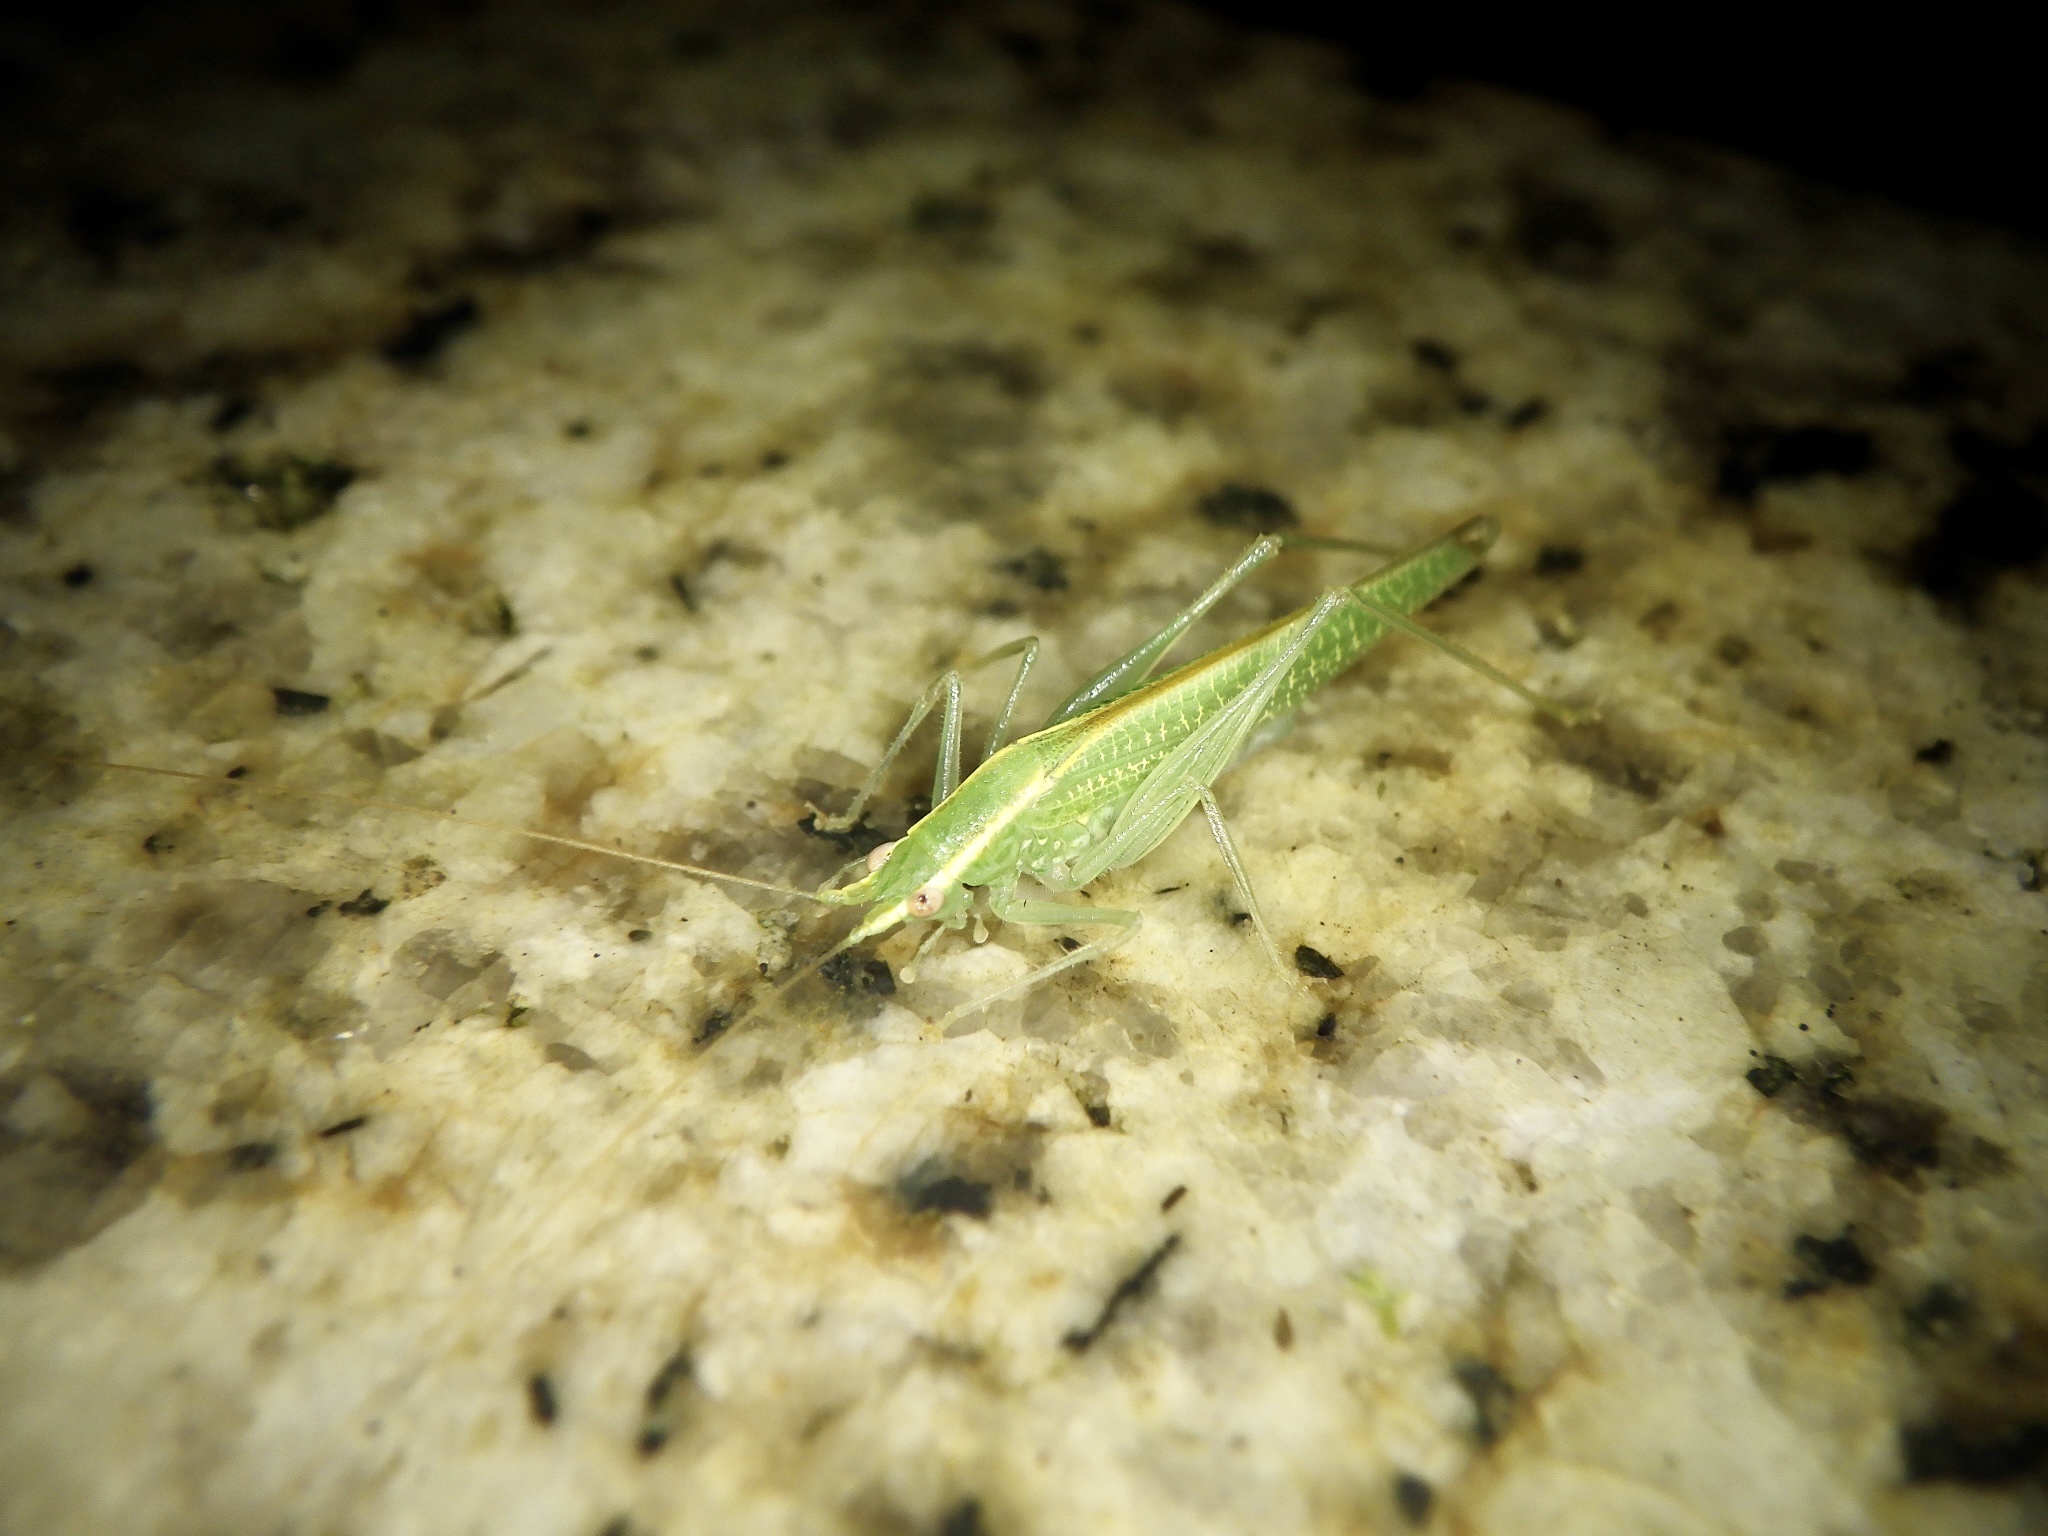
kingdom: Animalia
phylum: Arthropoda
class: Insecta
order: Orthoptera
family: Tettigoniidae
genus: Leptoteratura
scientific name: Leptoteratura albicorne
